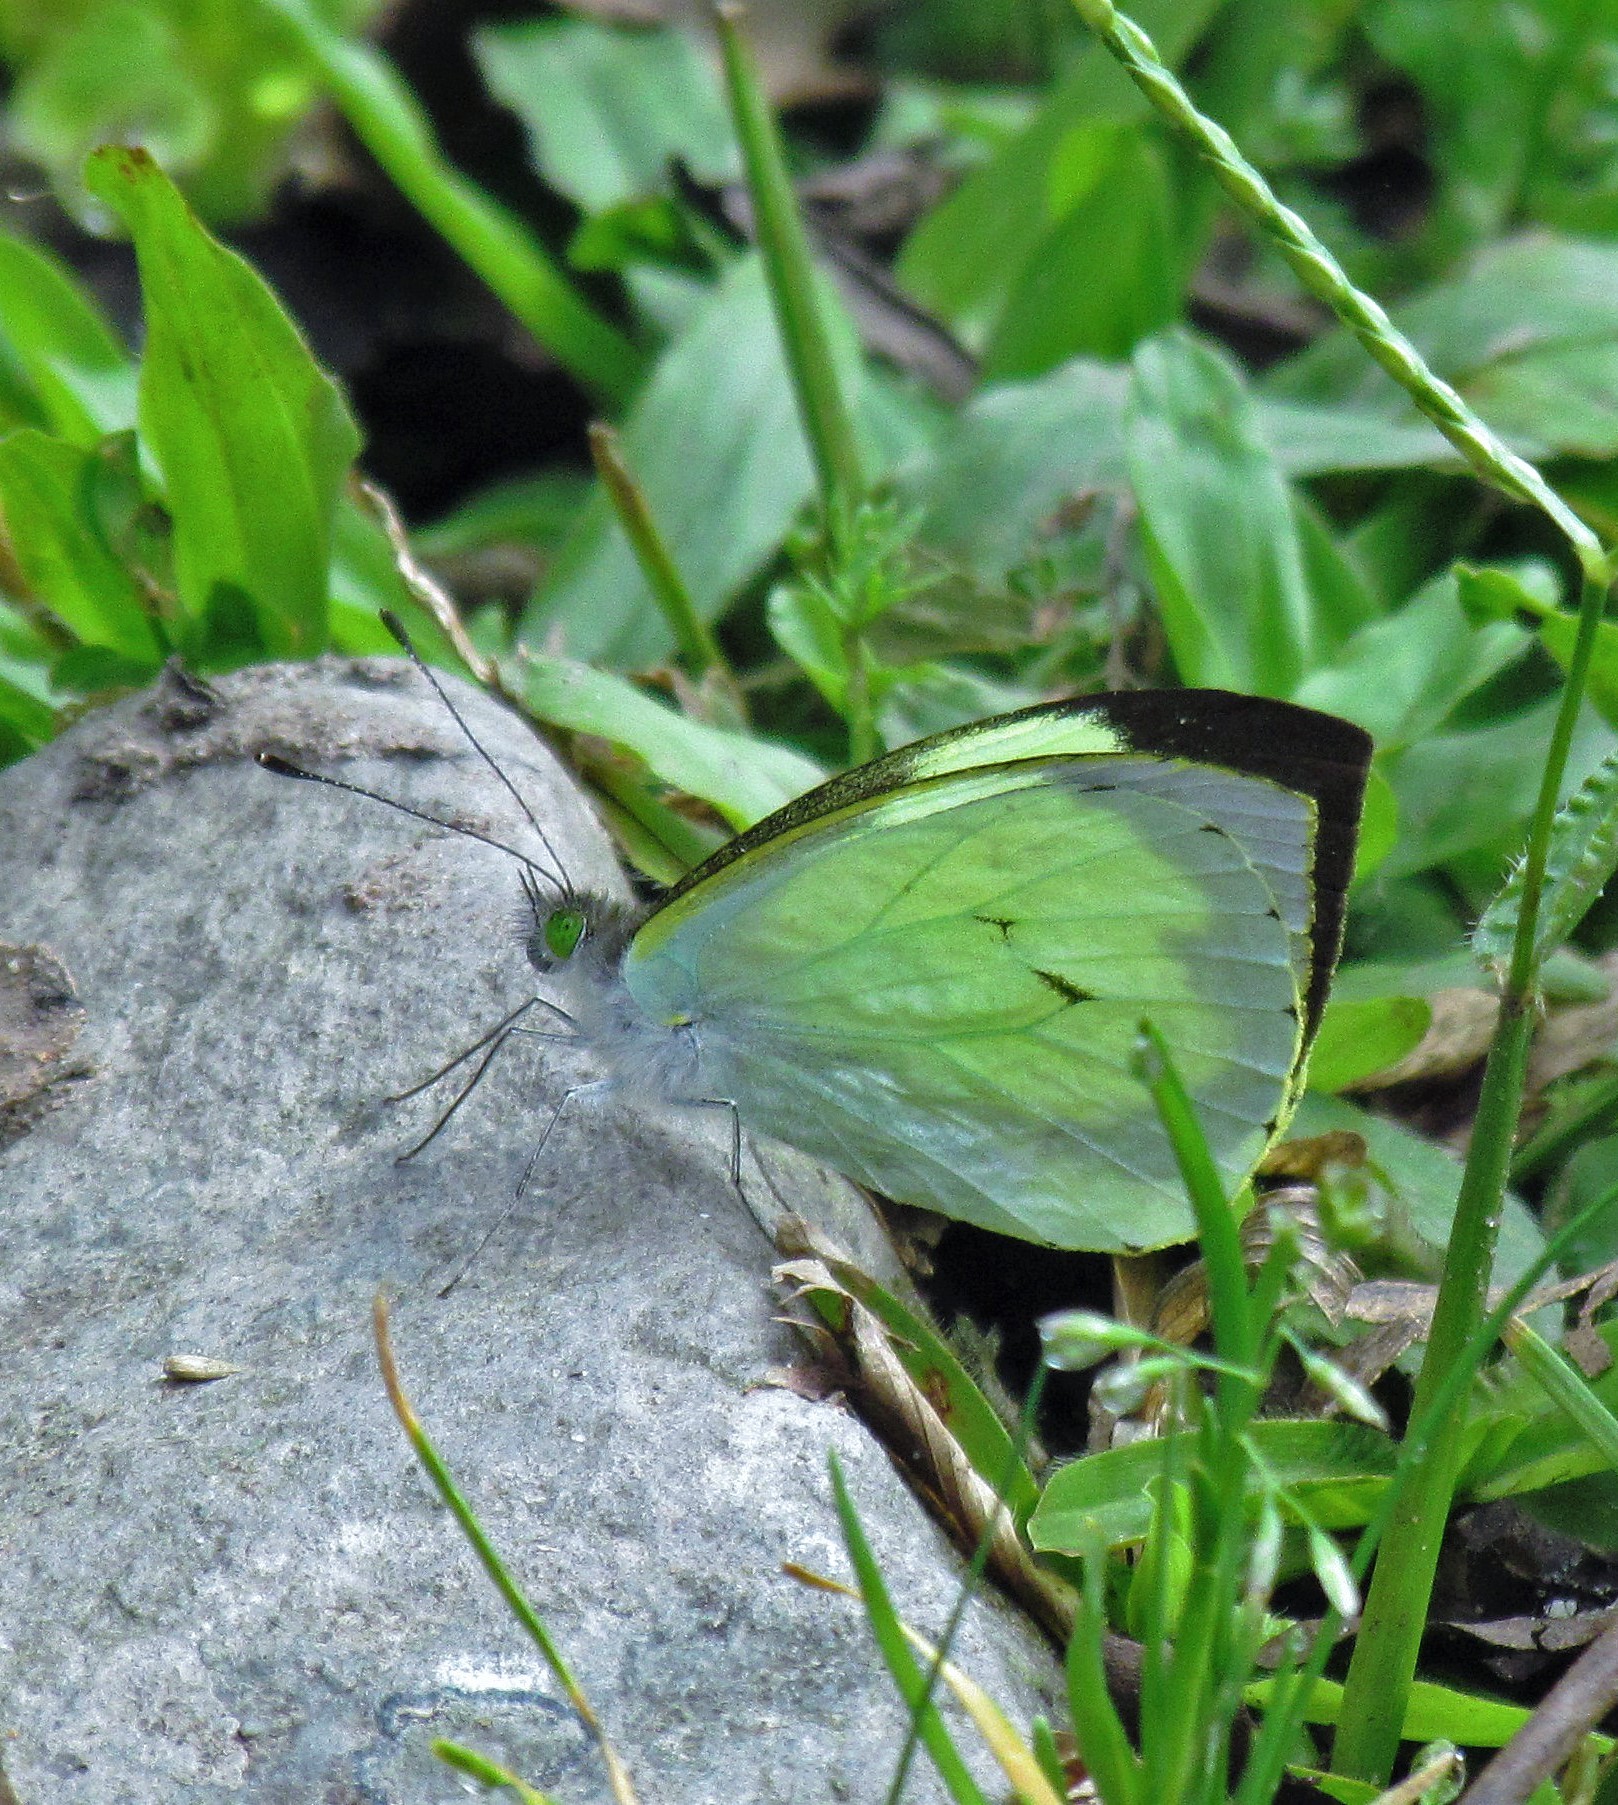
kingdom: Animalia
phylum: Arthropoda
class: Insecta
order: Lepidoptera
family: Pieridae
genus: Leptophobia
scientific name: Leptophobia diaguita
